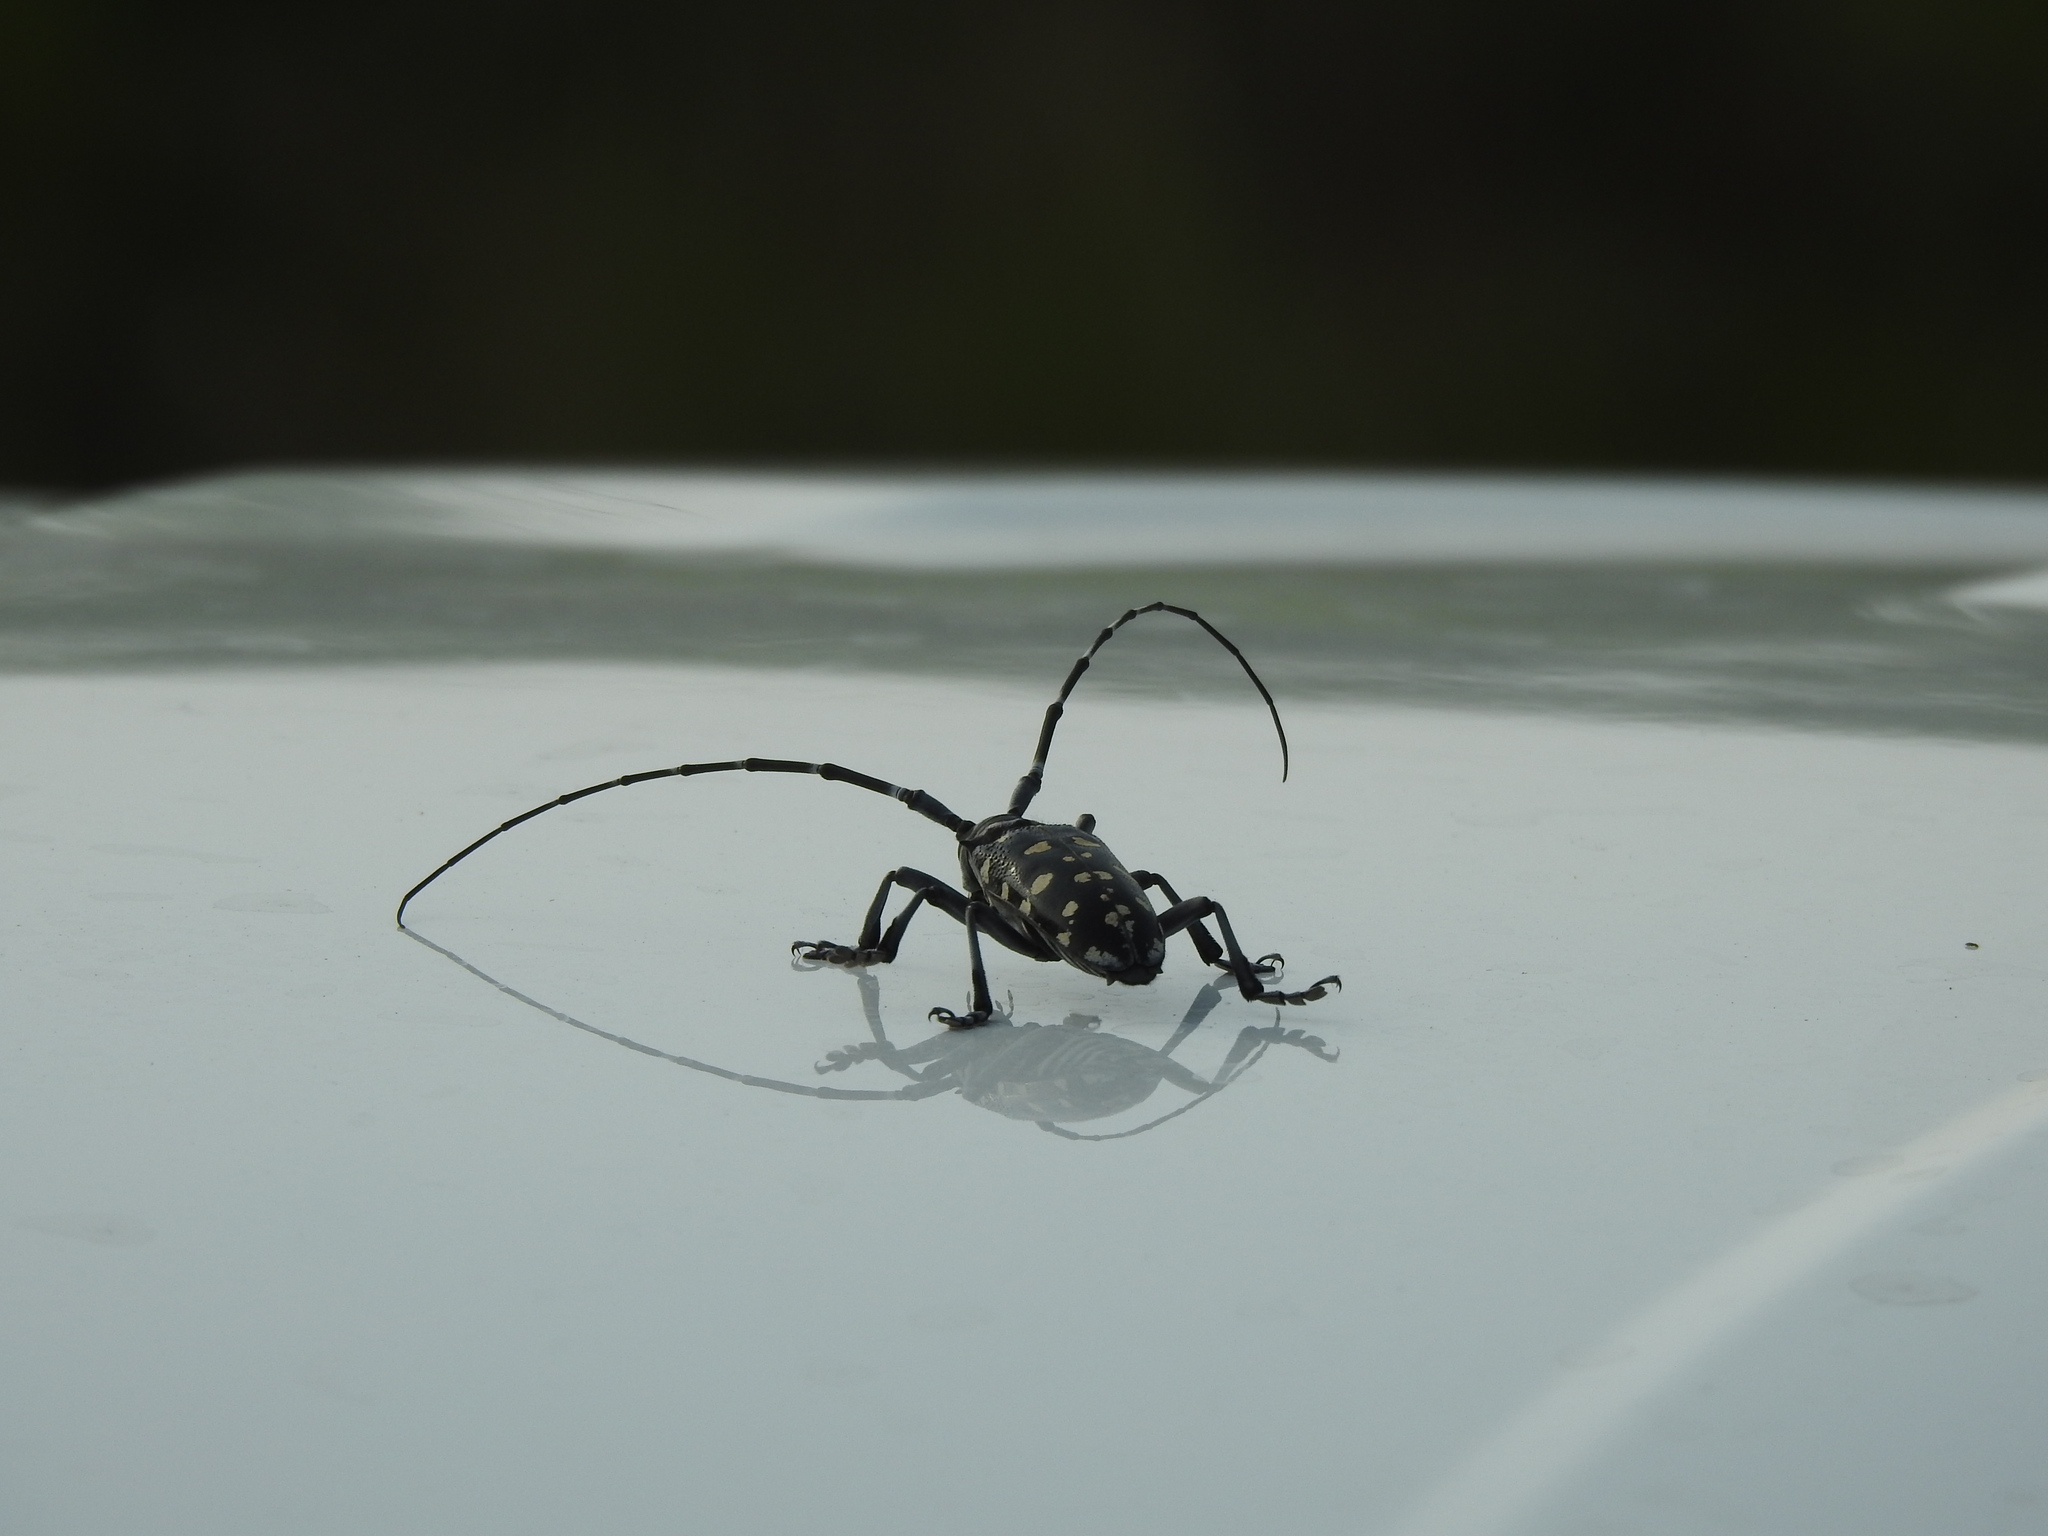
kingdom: Animalia
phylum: Arthropoda
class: Insecta
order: Coleoptera
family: Cerambycidae
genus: Anoplophora
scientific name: Anoplophora macularia
